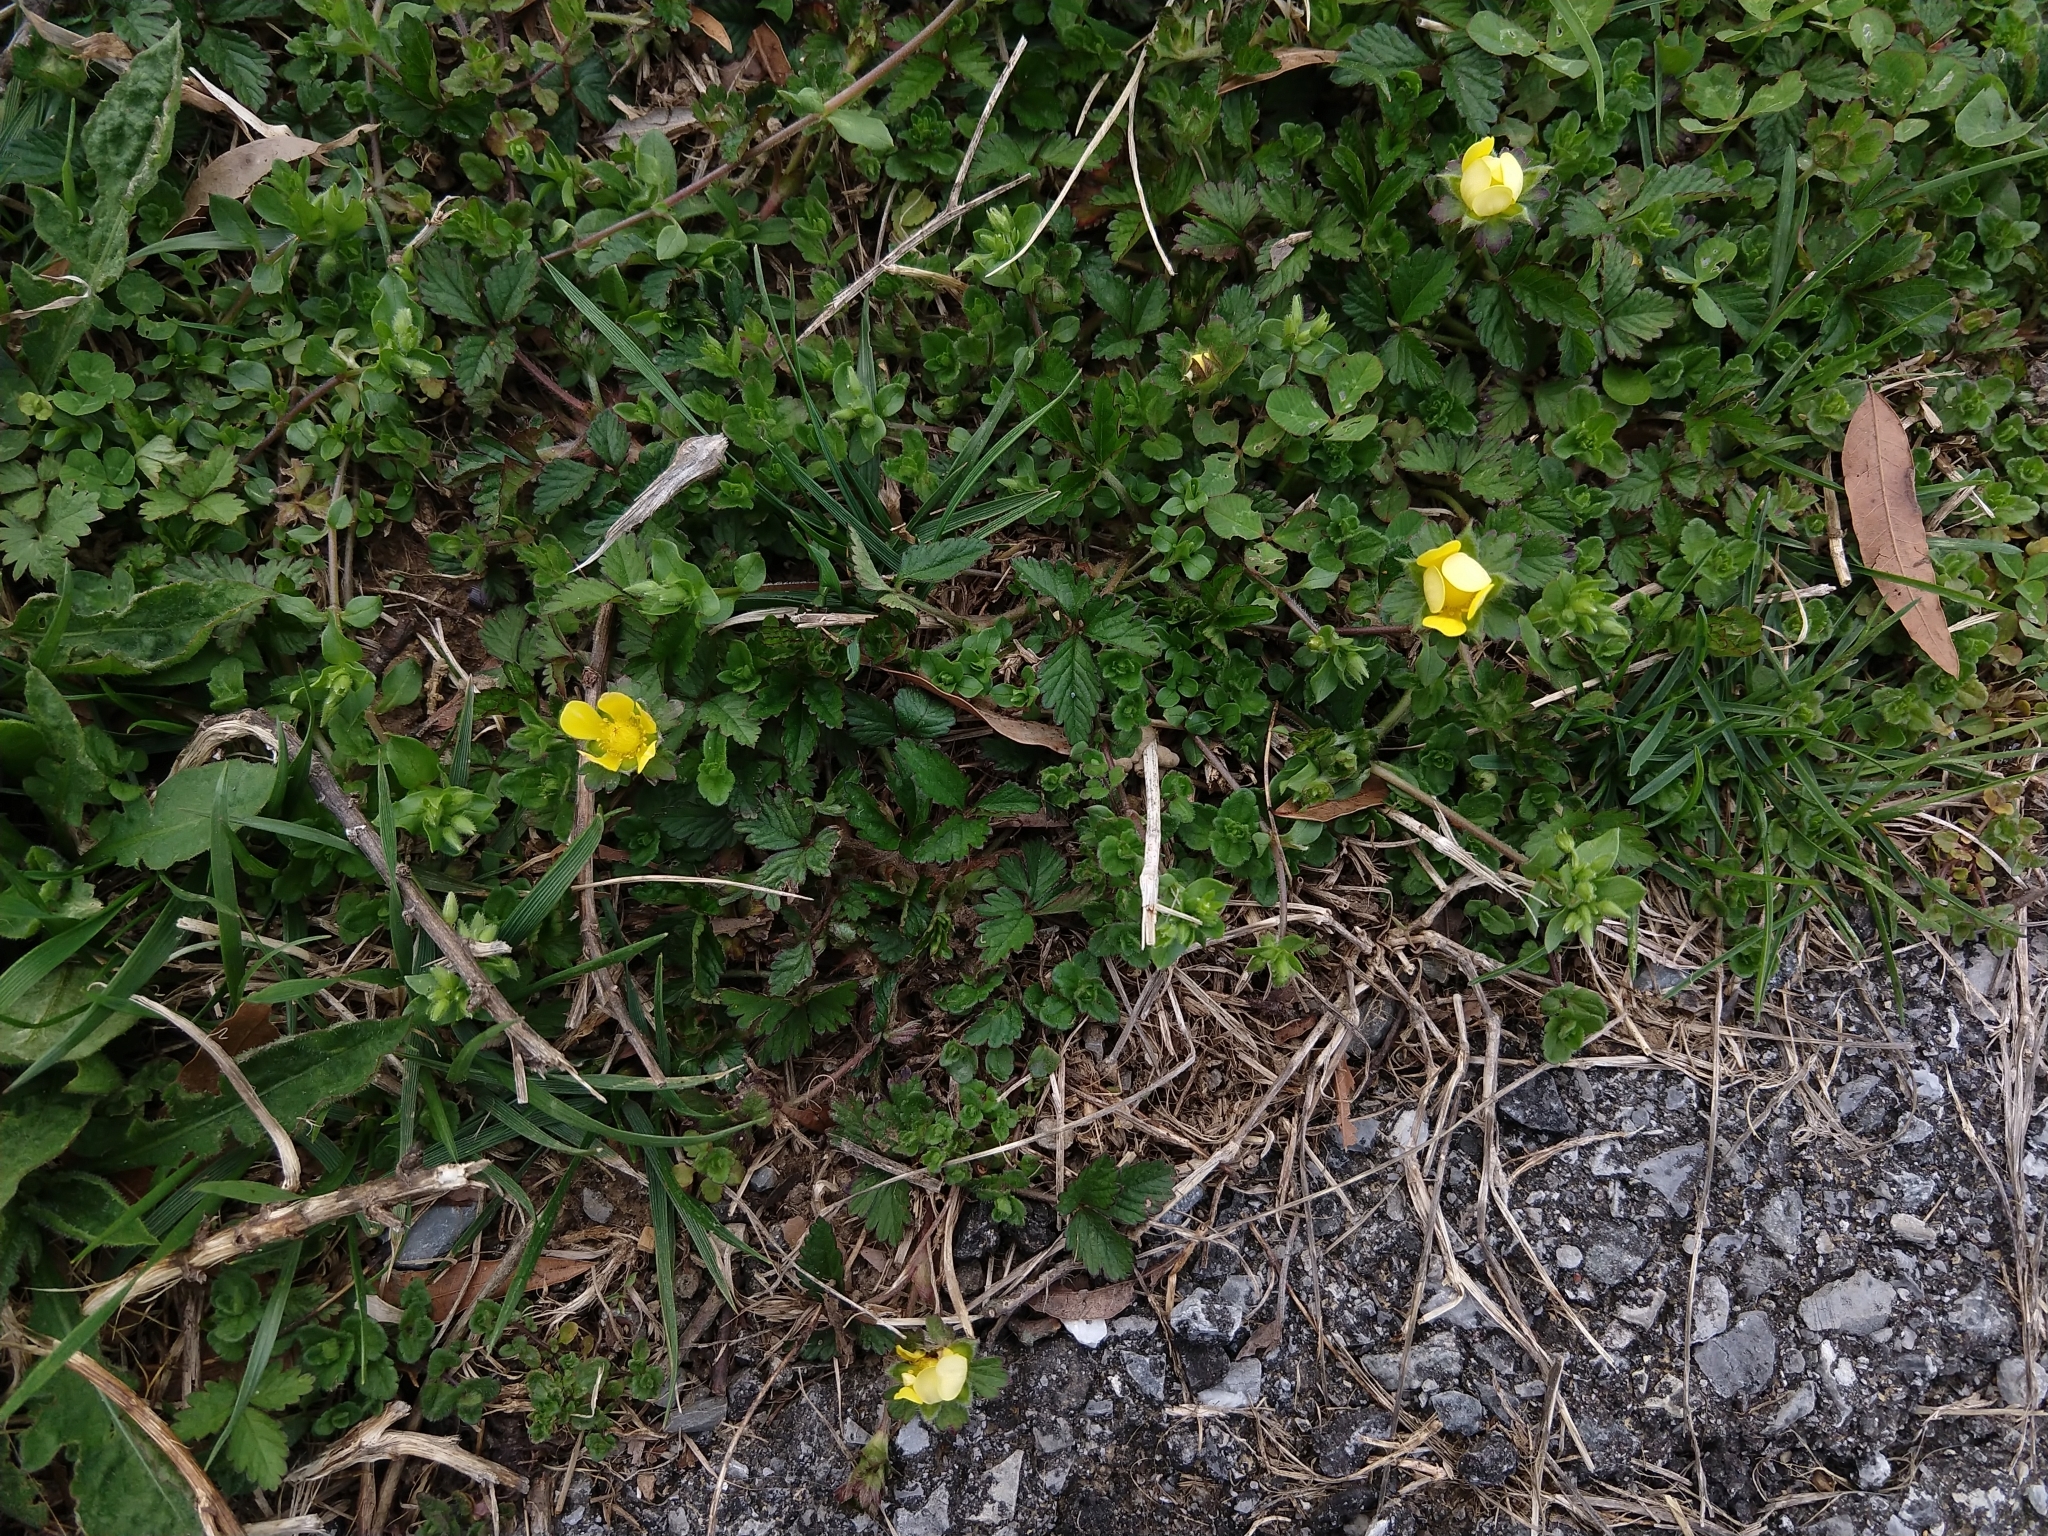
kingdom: Plantae
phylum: Tracheophyta
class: Magnoliopsida
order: Rosales
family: Rosaceae
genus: Potentilla
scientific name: Potentilla indica
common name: Yellow-flowered strawberry
